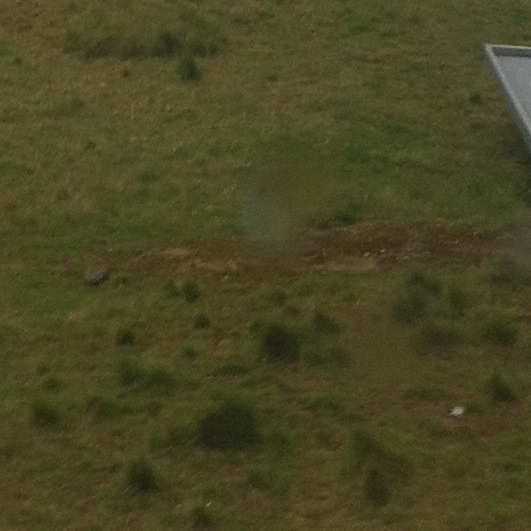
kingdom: Animalia
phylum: Chordata
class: Mammalia
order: Lagomorpha
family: Leporidae
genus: Oryctolagus
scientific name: Oryctolagus cuniculus
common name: European rabbit
